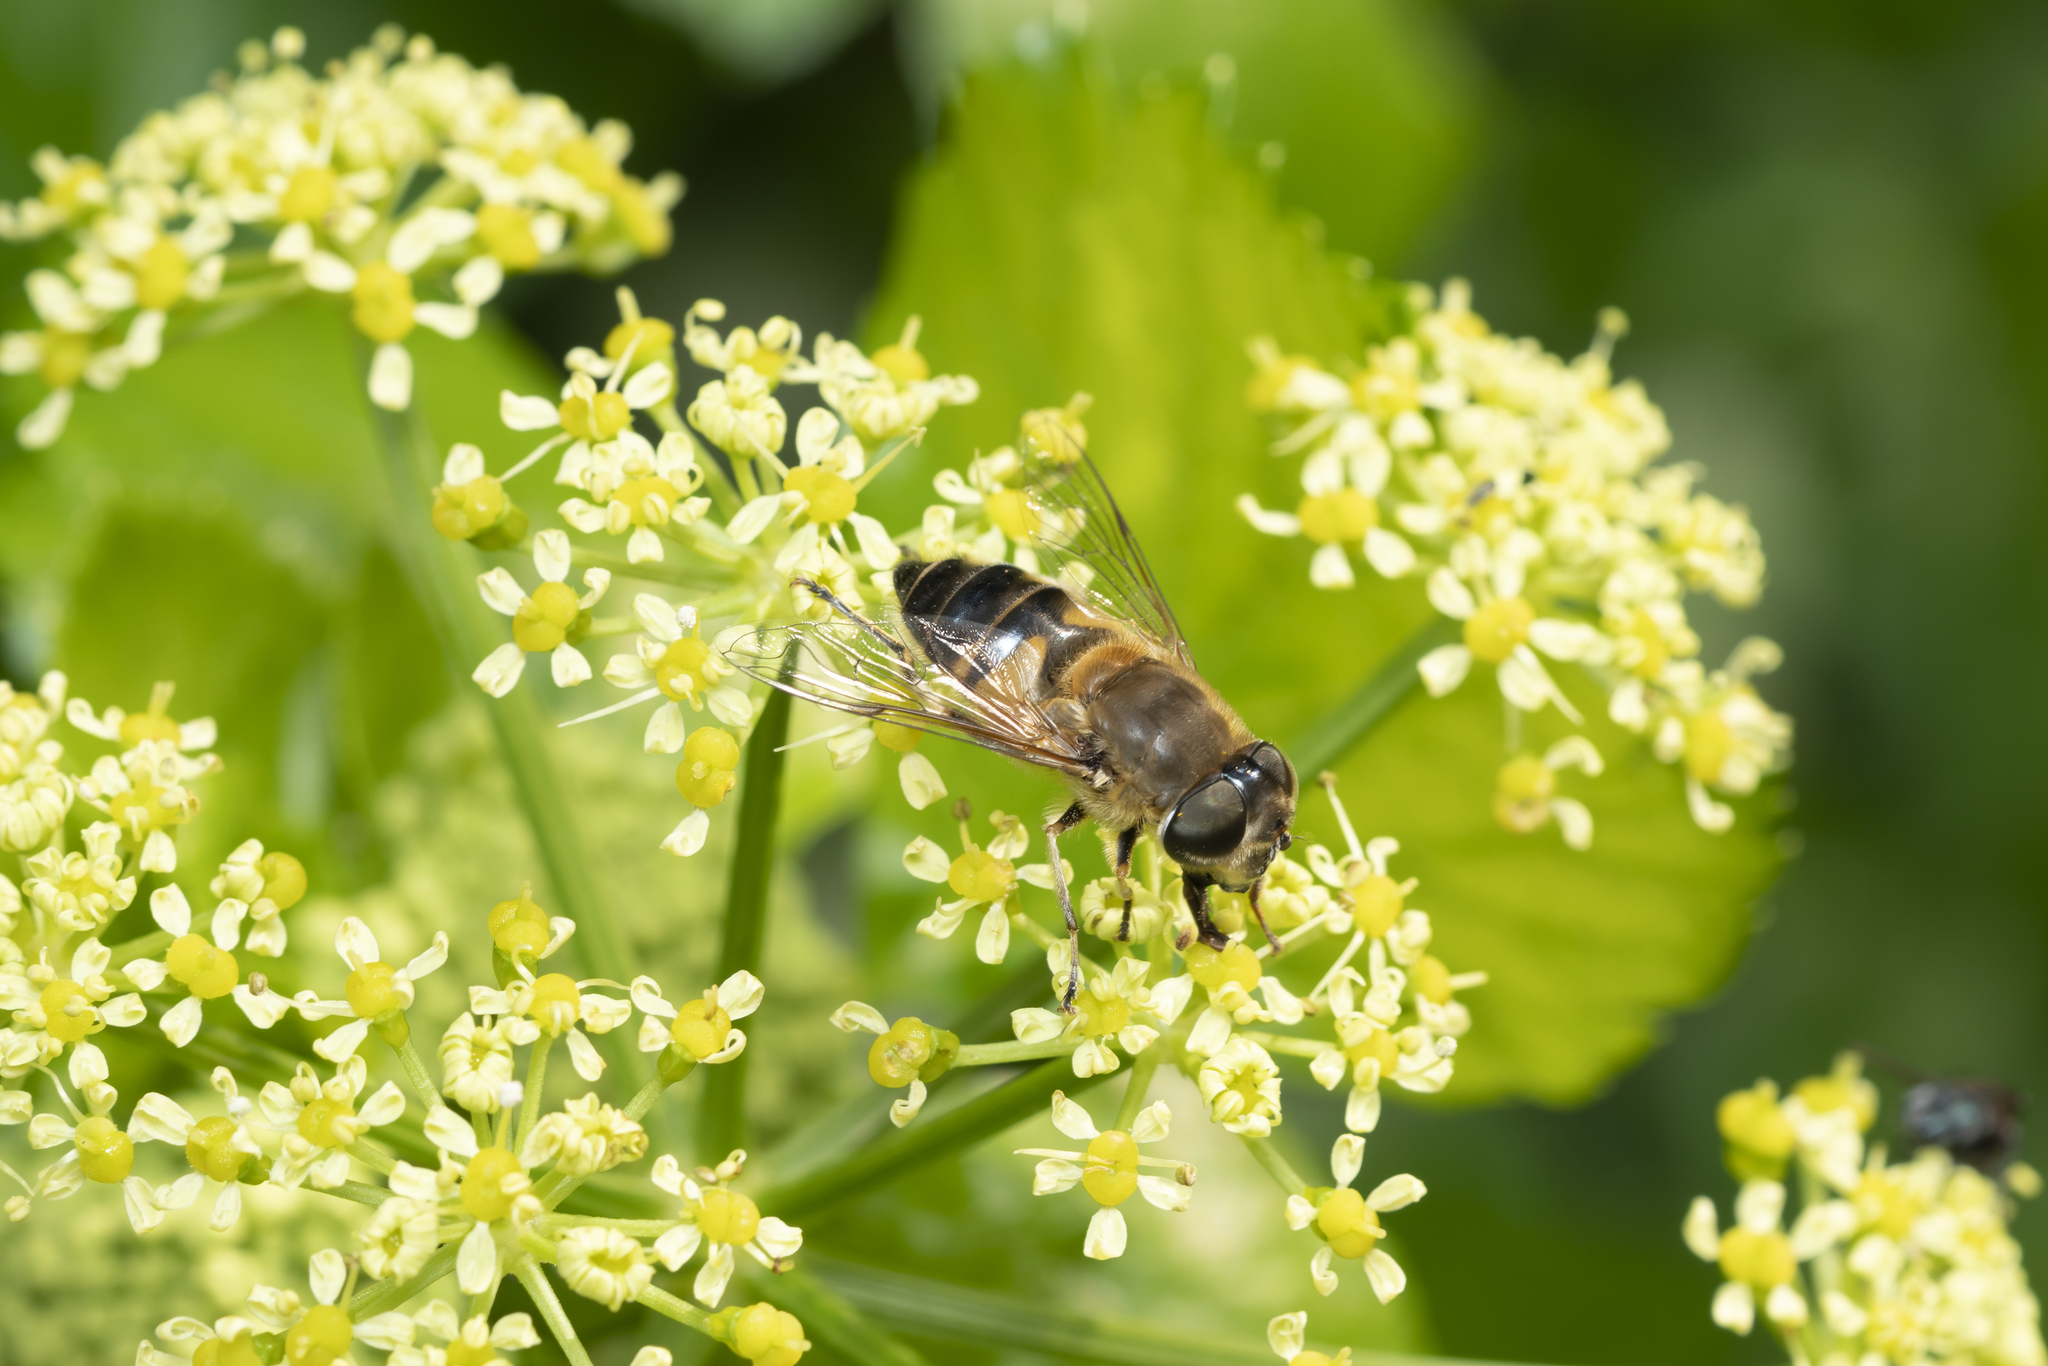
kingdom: Animalia
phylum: Arthropoda
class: Insecta
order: Diptera
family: Syrphidae
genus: Eristalis
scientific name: Eristalis pertinax
